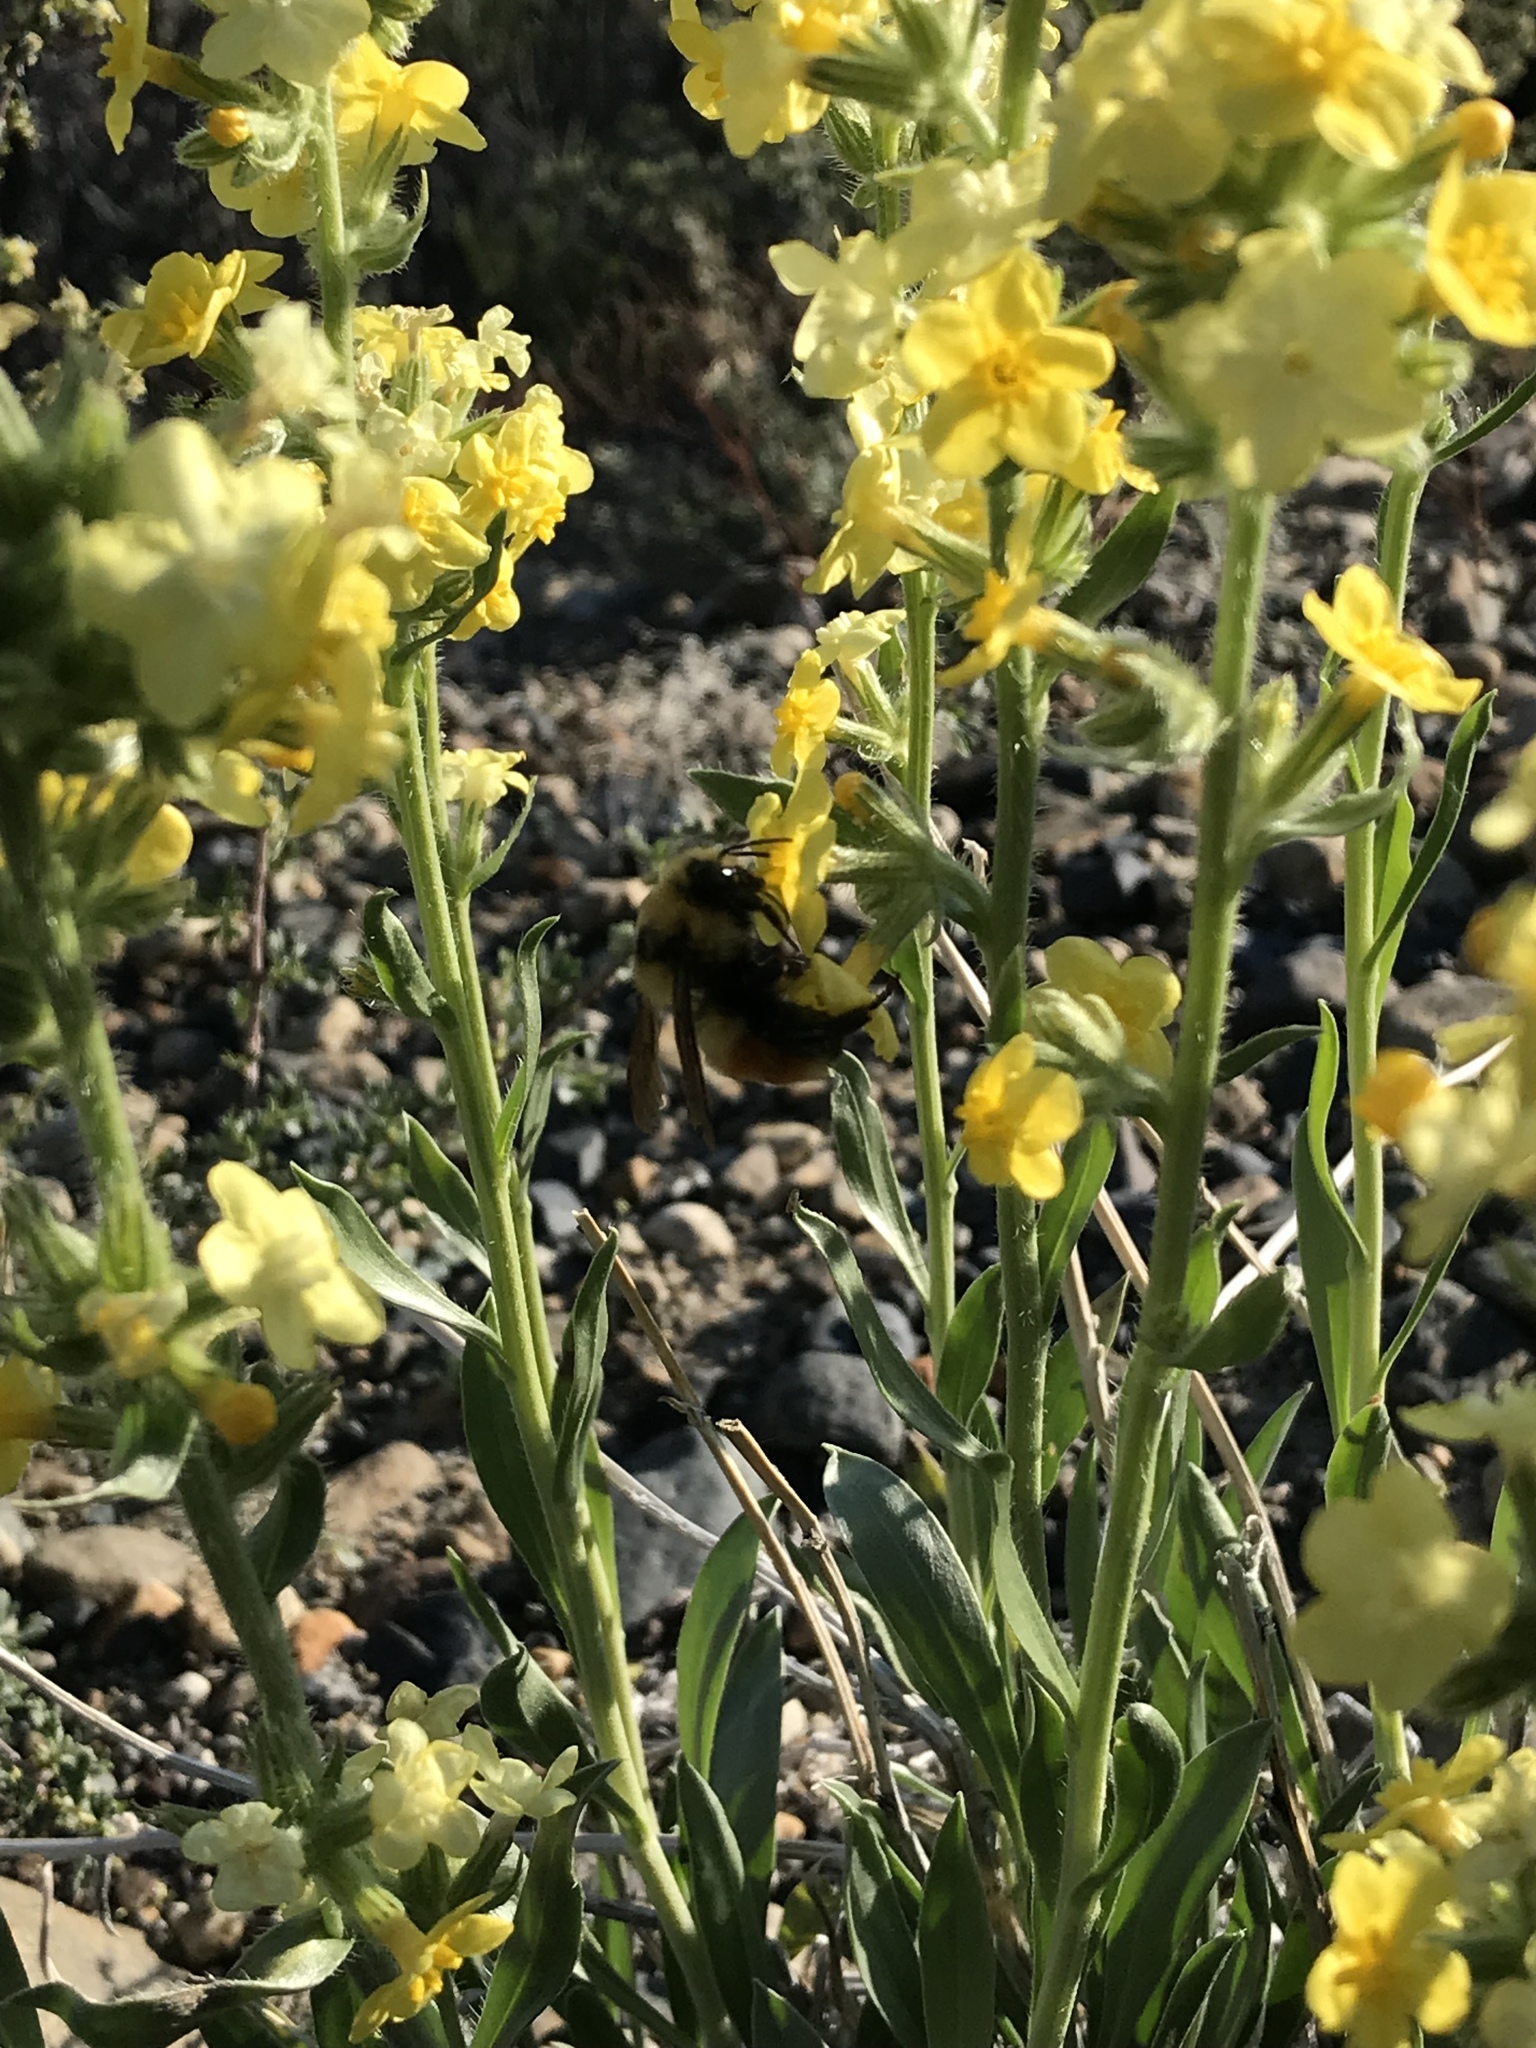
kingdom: Animalia
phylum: Arthropoda
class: Insecta
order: Hymenoptera
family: Apidae
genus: Bombus
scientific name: Bombus huntii
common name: Hunt bumble bee
